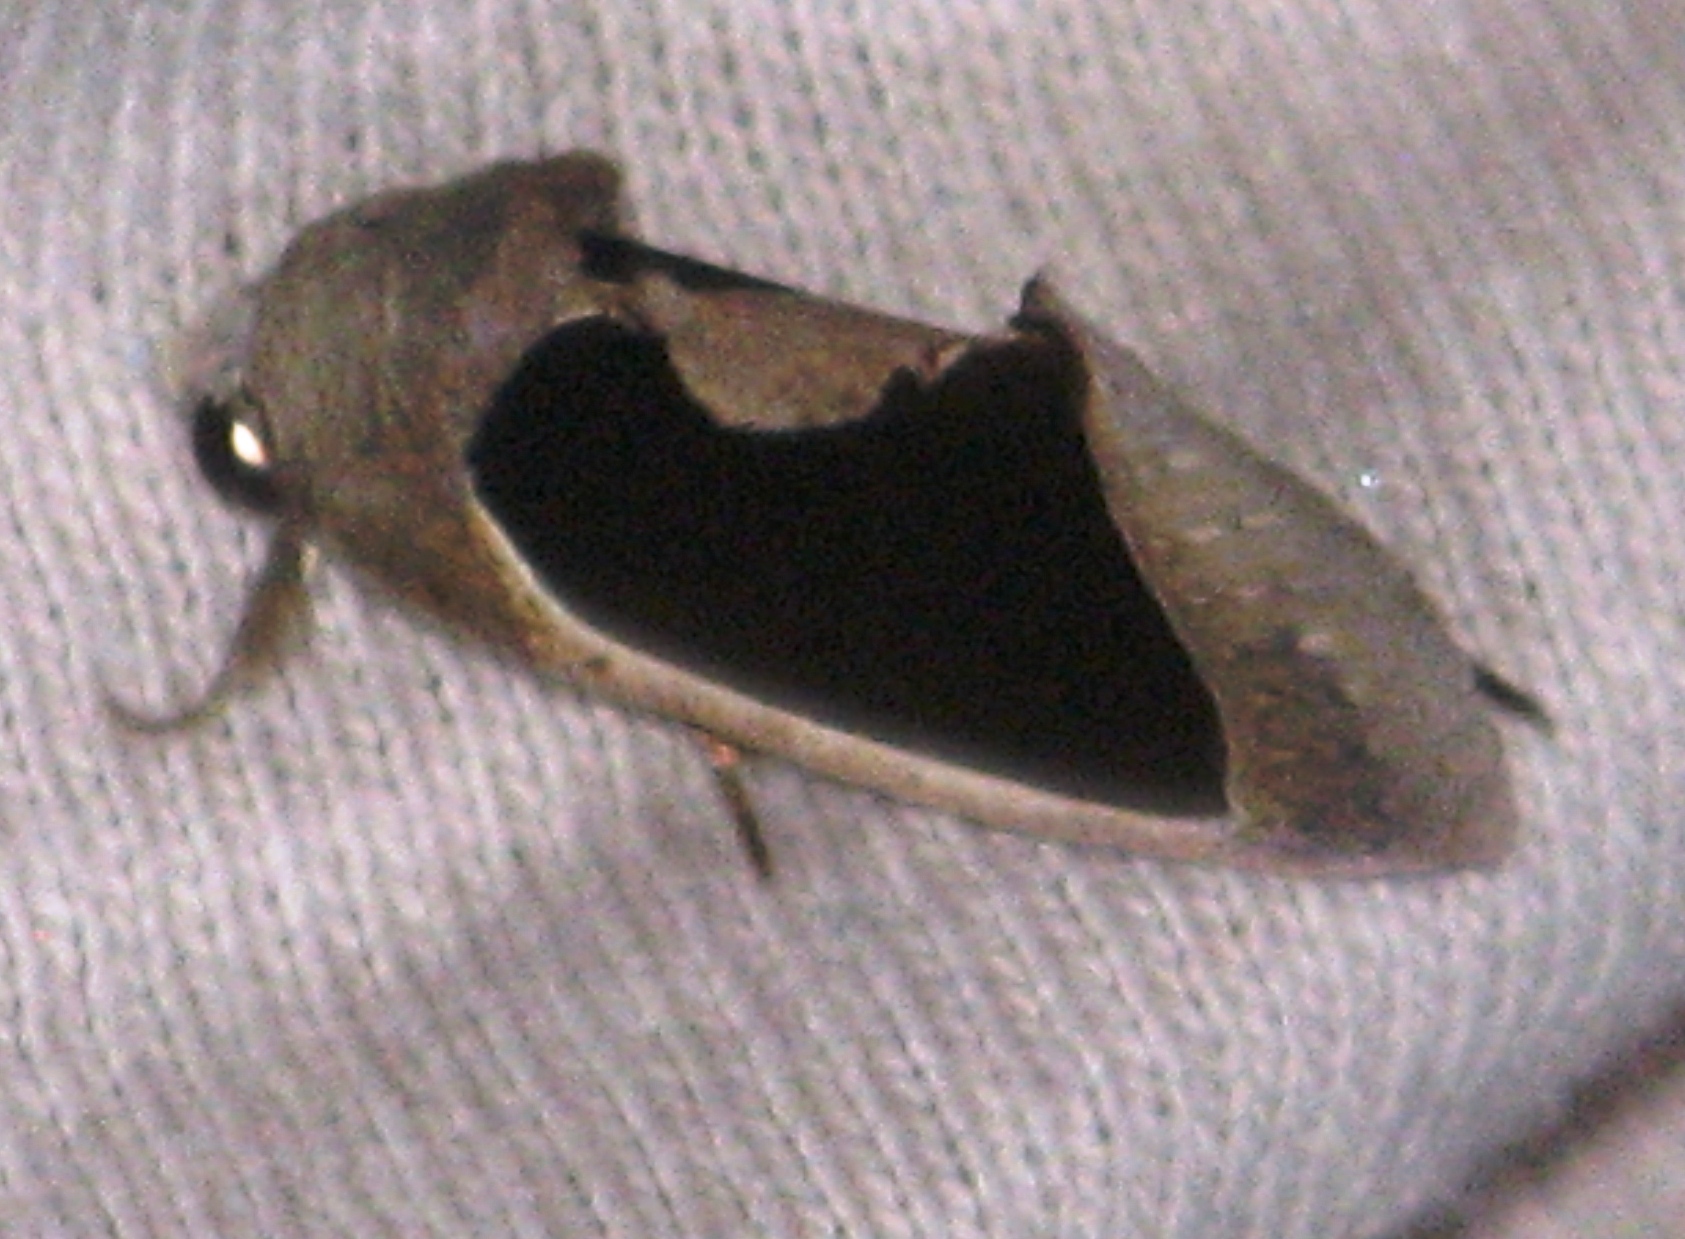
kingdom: Animalia
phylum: Arthropoda
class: Insecta
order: Lepidoptera
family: Erebidae
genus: Gonodonta
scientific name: Gonodonta sinaldus
